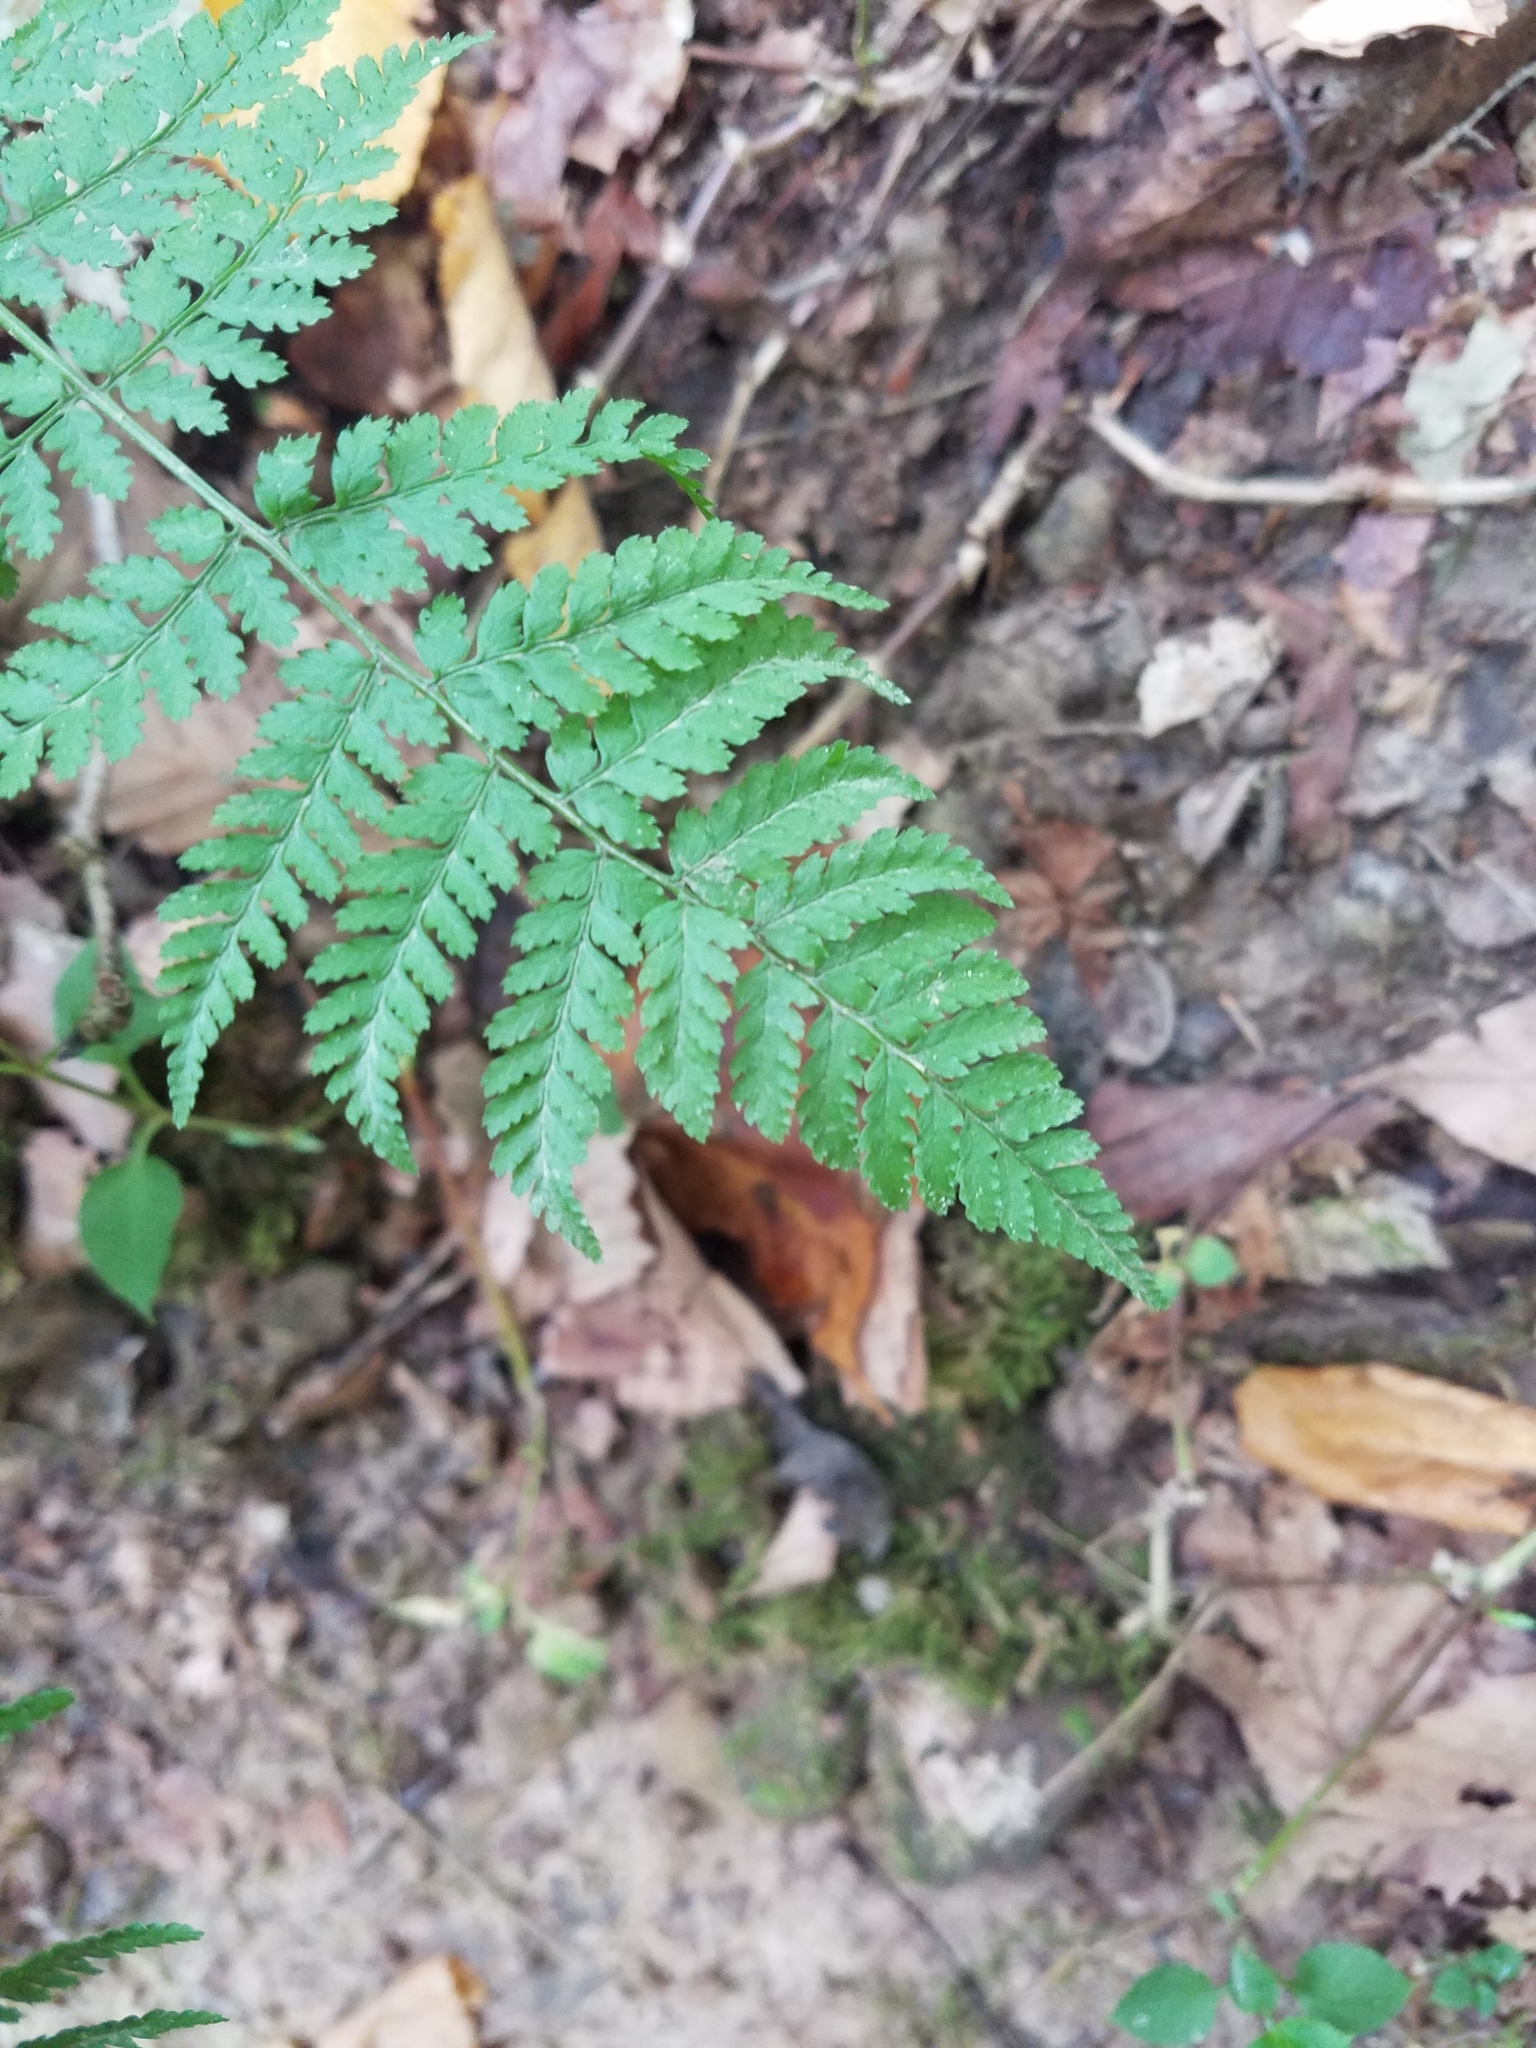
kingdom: Plantae
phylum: Tracheophyta
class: Polypodiopsida
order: Polypodiales
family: Dryopteridaceae
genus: Dryopteris
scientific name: Dryopteris intermedia
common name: Evergreen wood fern
